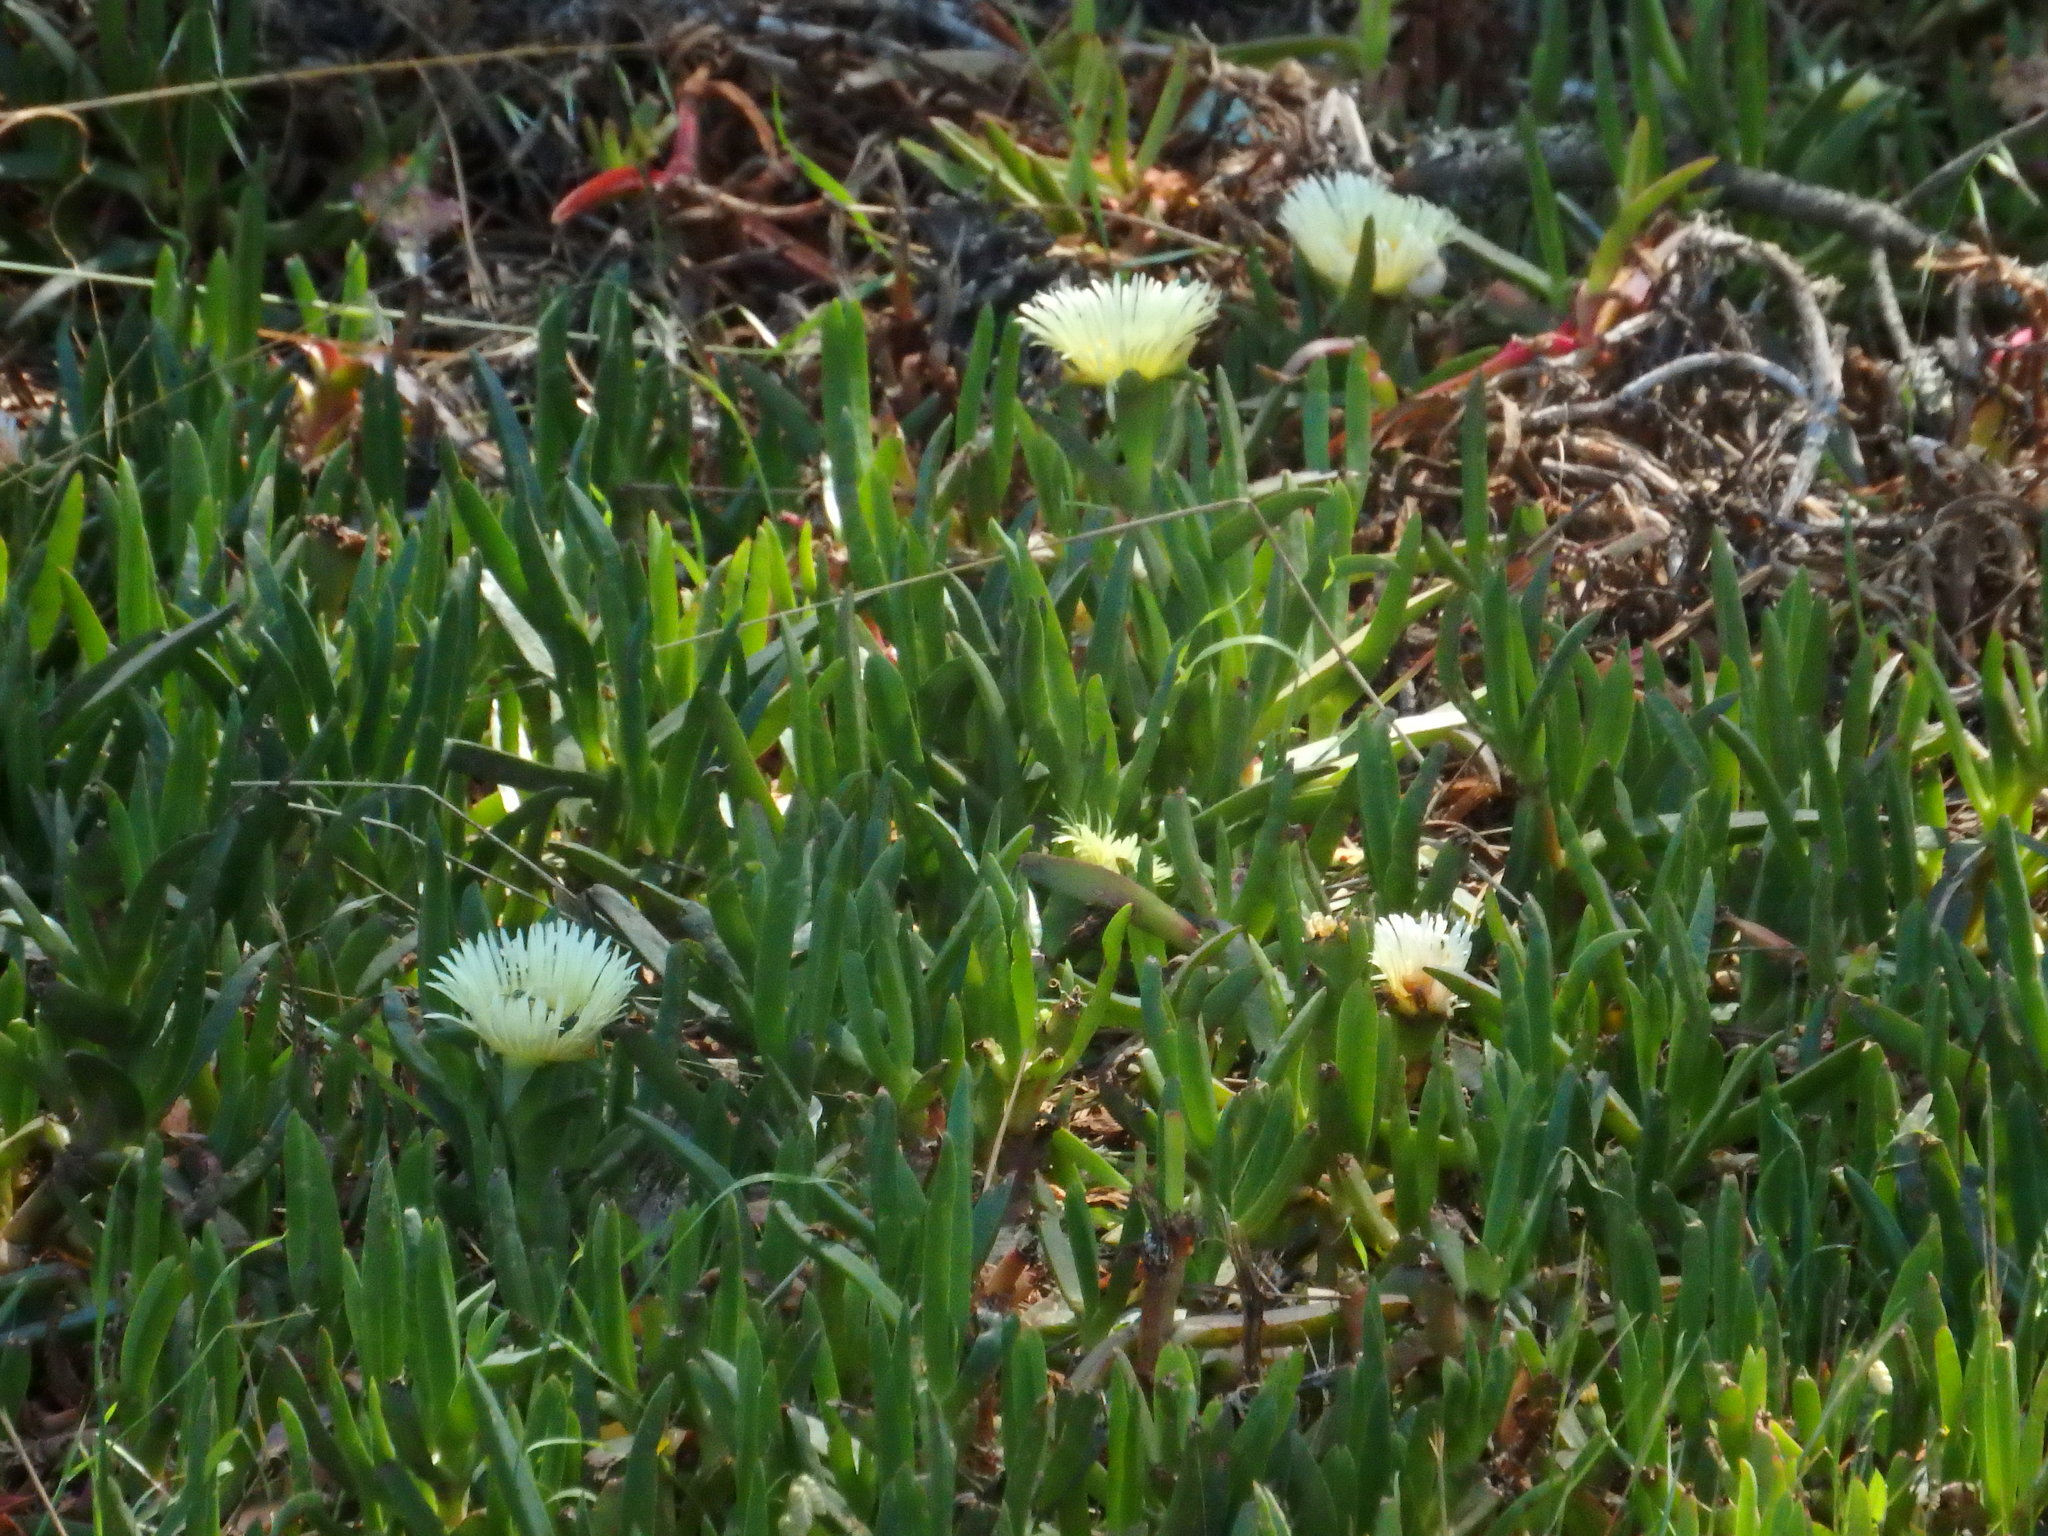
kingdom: Plantae
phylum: Tracheophyta
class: Magnoliopsida
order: Caryophyllales
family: Aizoaceae
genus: Carpobrotus
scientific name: Carpobrotus edulis
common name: Hottentot-fig
